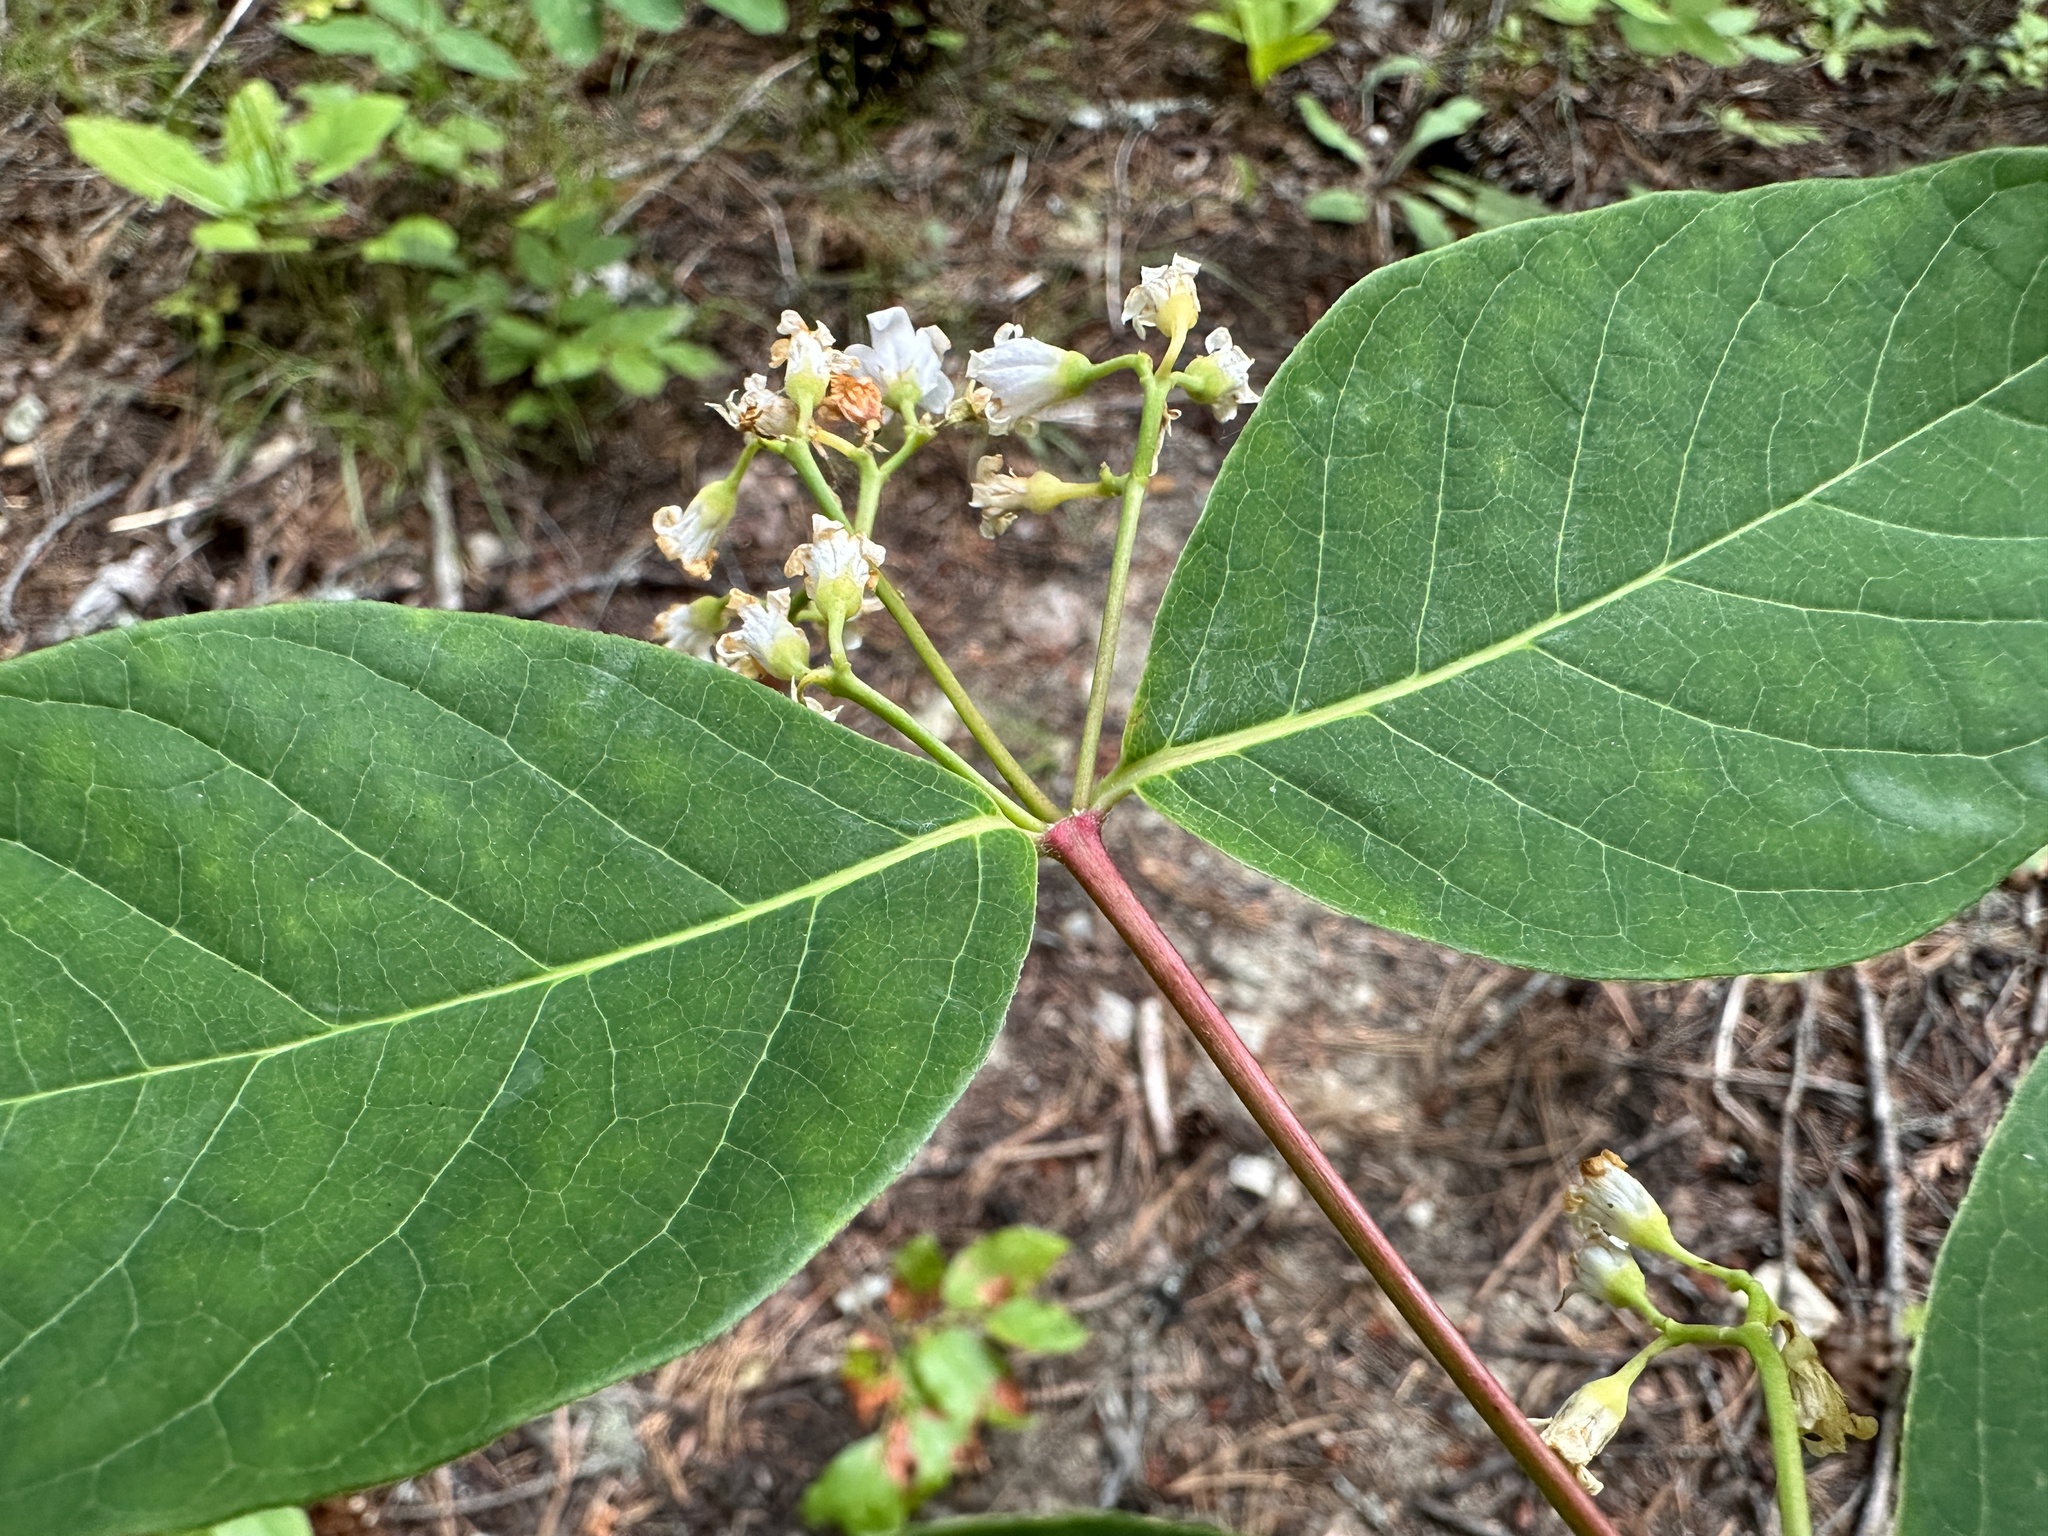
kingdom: Plantae
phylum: Tracheophyta
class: Magnoliopsida
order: Gentianales
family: Apocynaceae
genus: Apocynum
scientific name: Apocynum androsaemifolium
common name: Spreading dogbane
